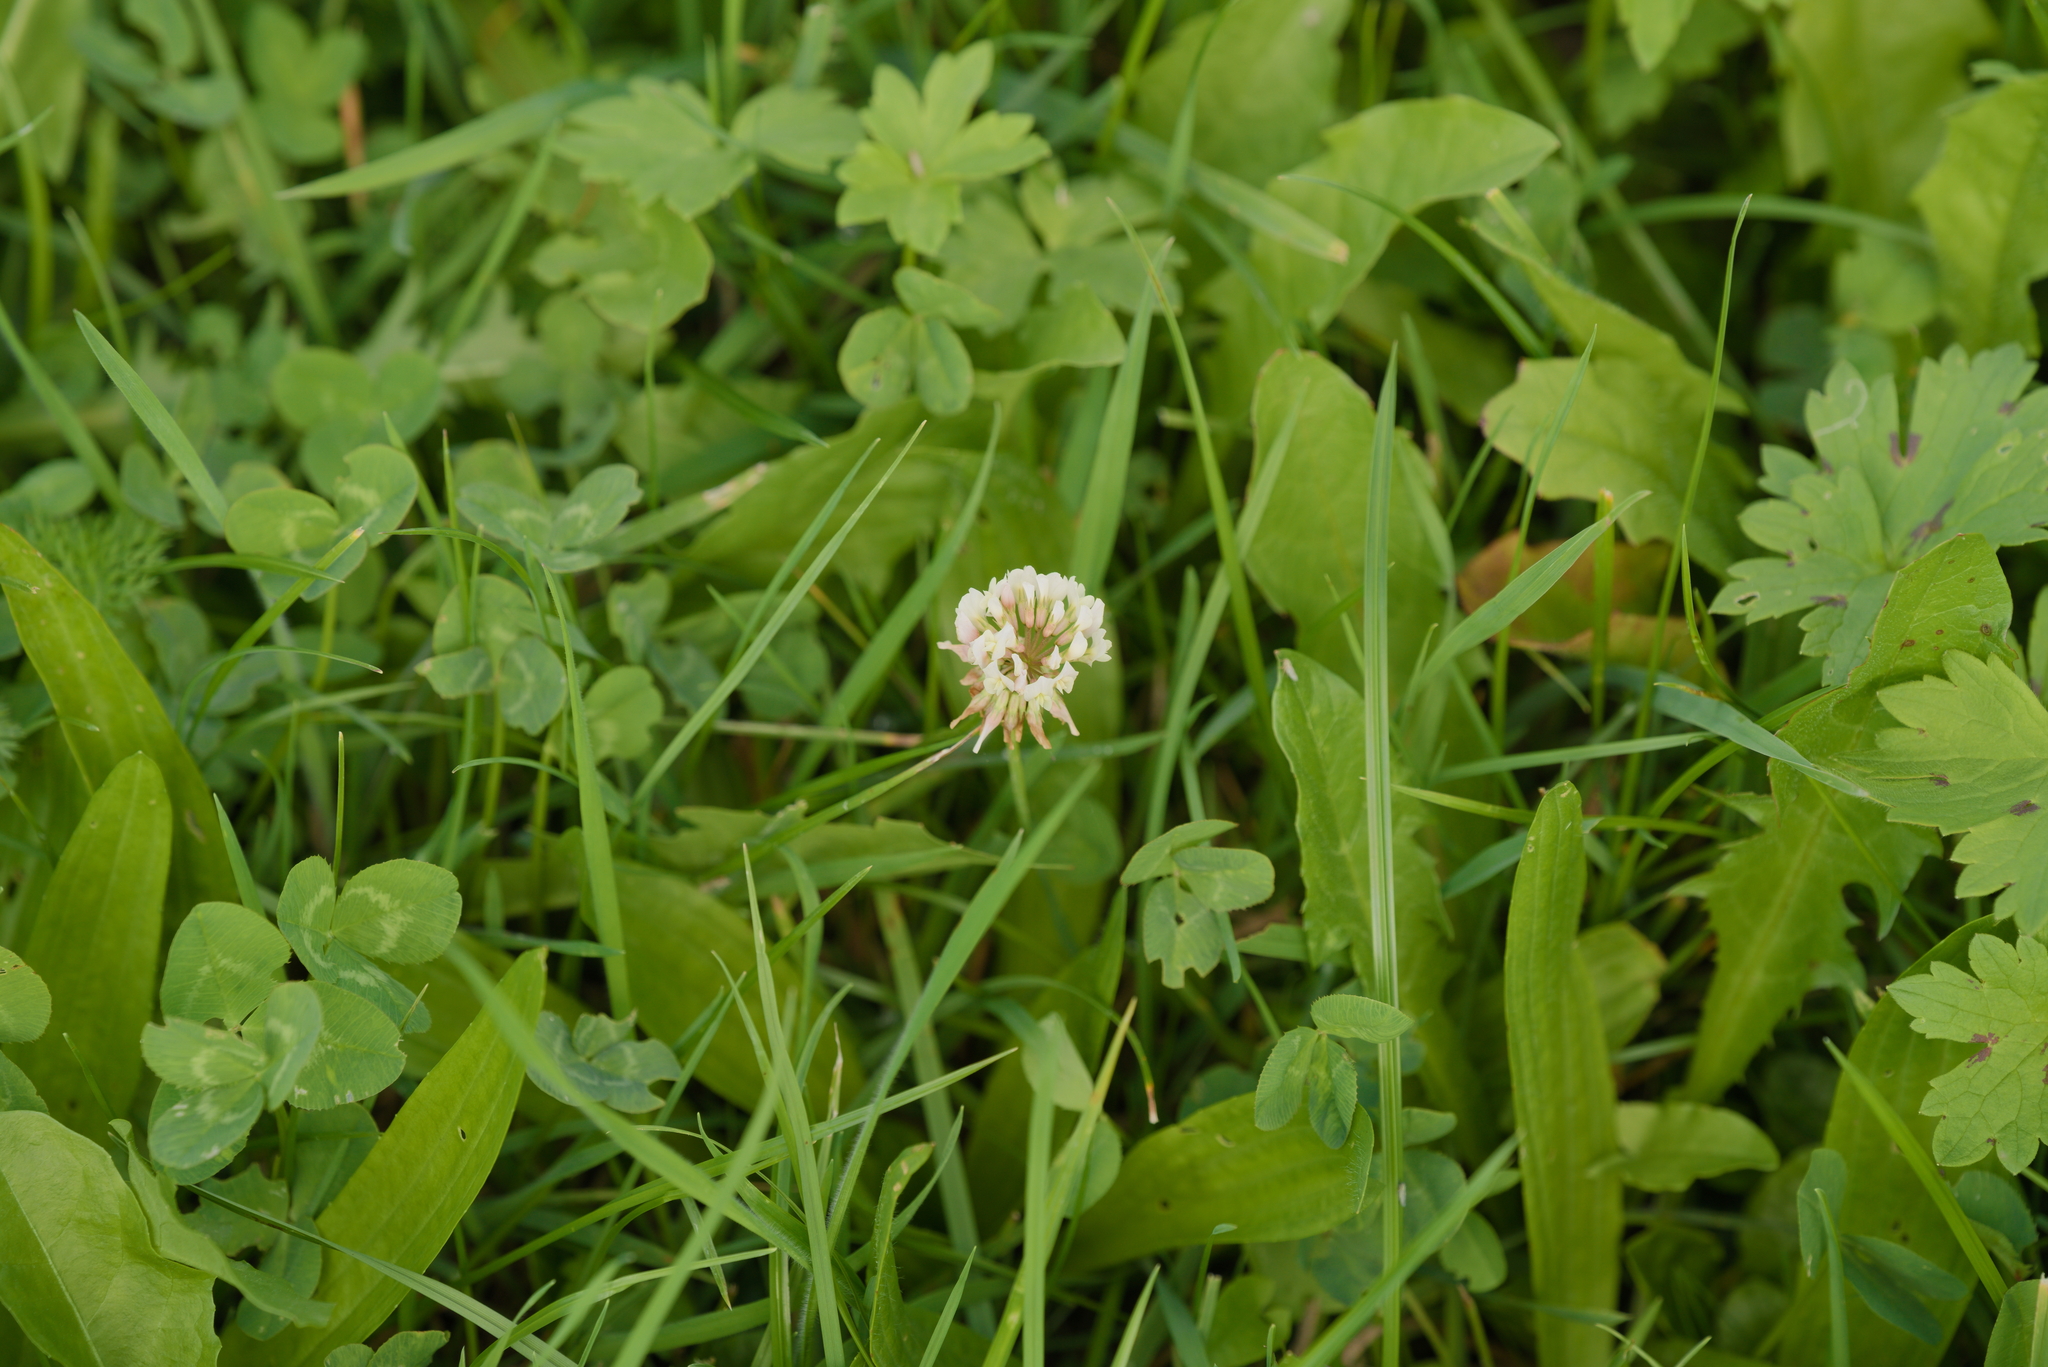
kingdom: Plantae
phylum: Tracheophyta
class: Magnoliopsida
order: Fabales
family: Fabaceae
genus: Trifolium
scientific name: Trifolium repens
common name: White clover
